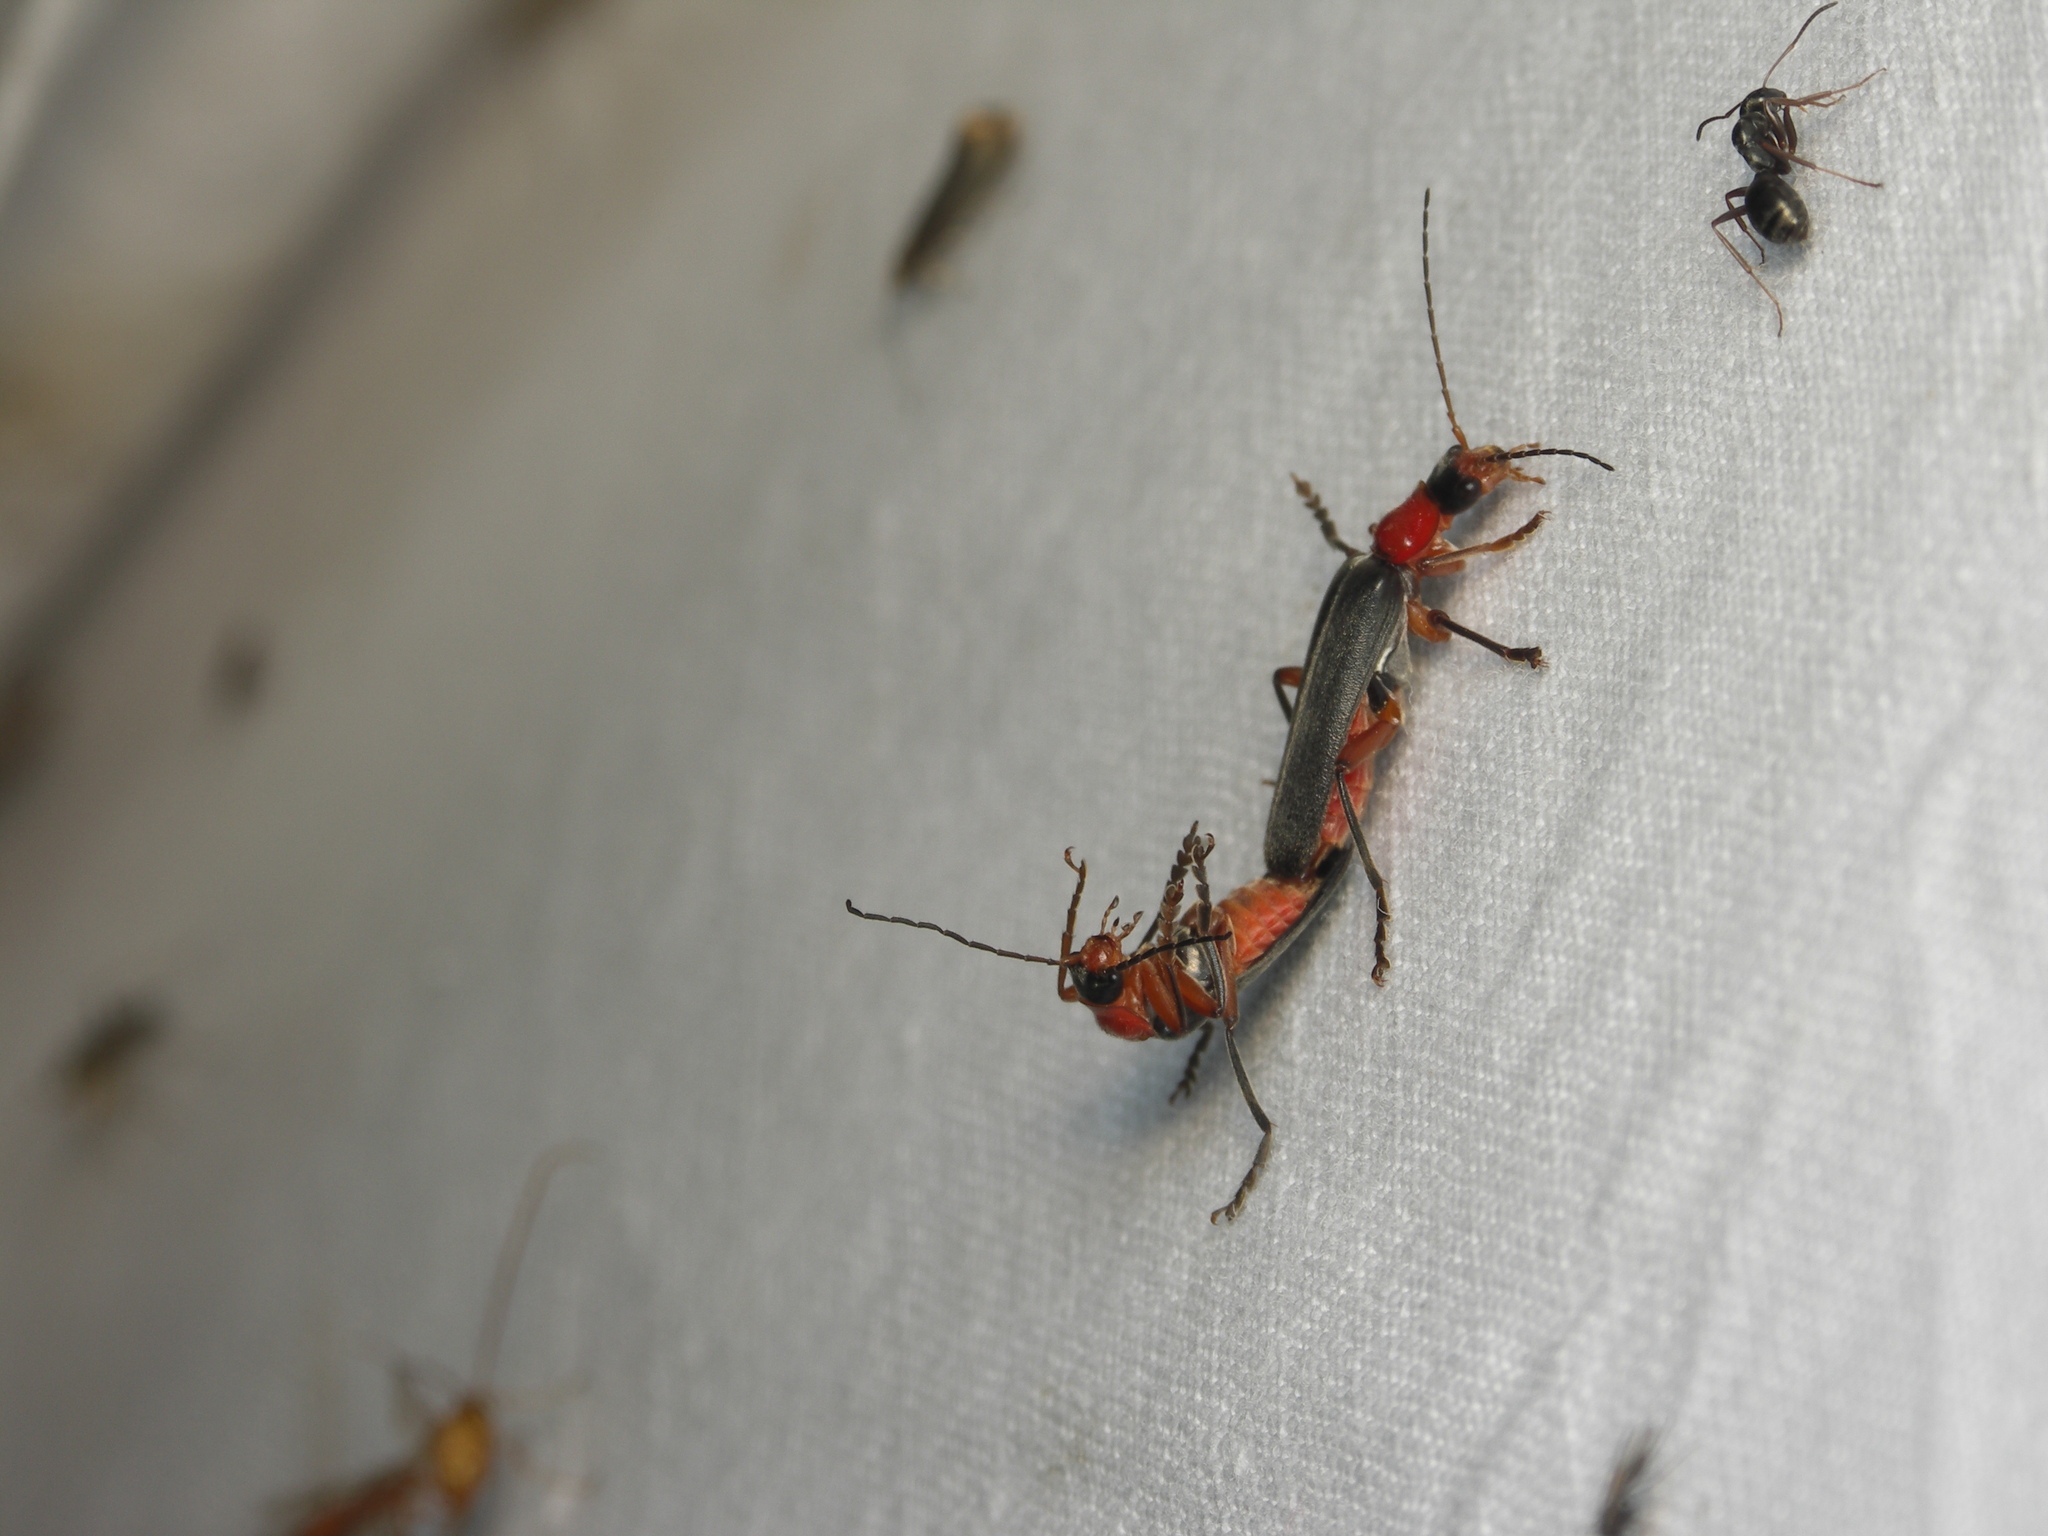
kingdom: Animalia
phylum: Arthropoda
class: Insecta
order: Coleoptera
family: Cantharidae
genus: Cantharis
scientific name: Cantharis pellucida
